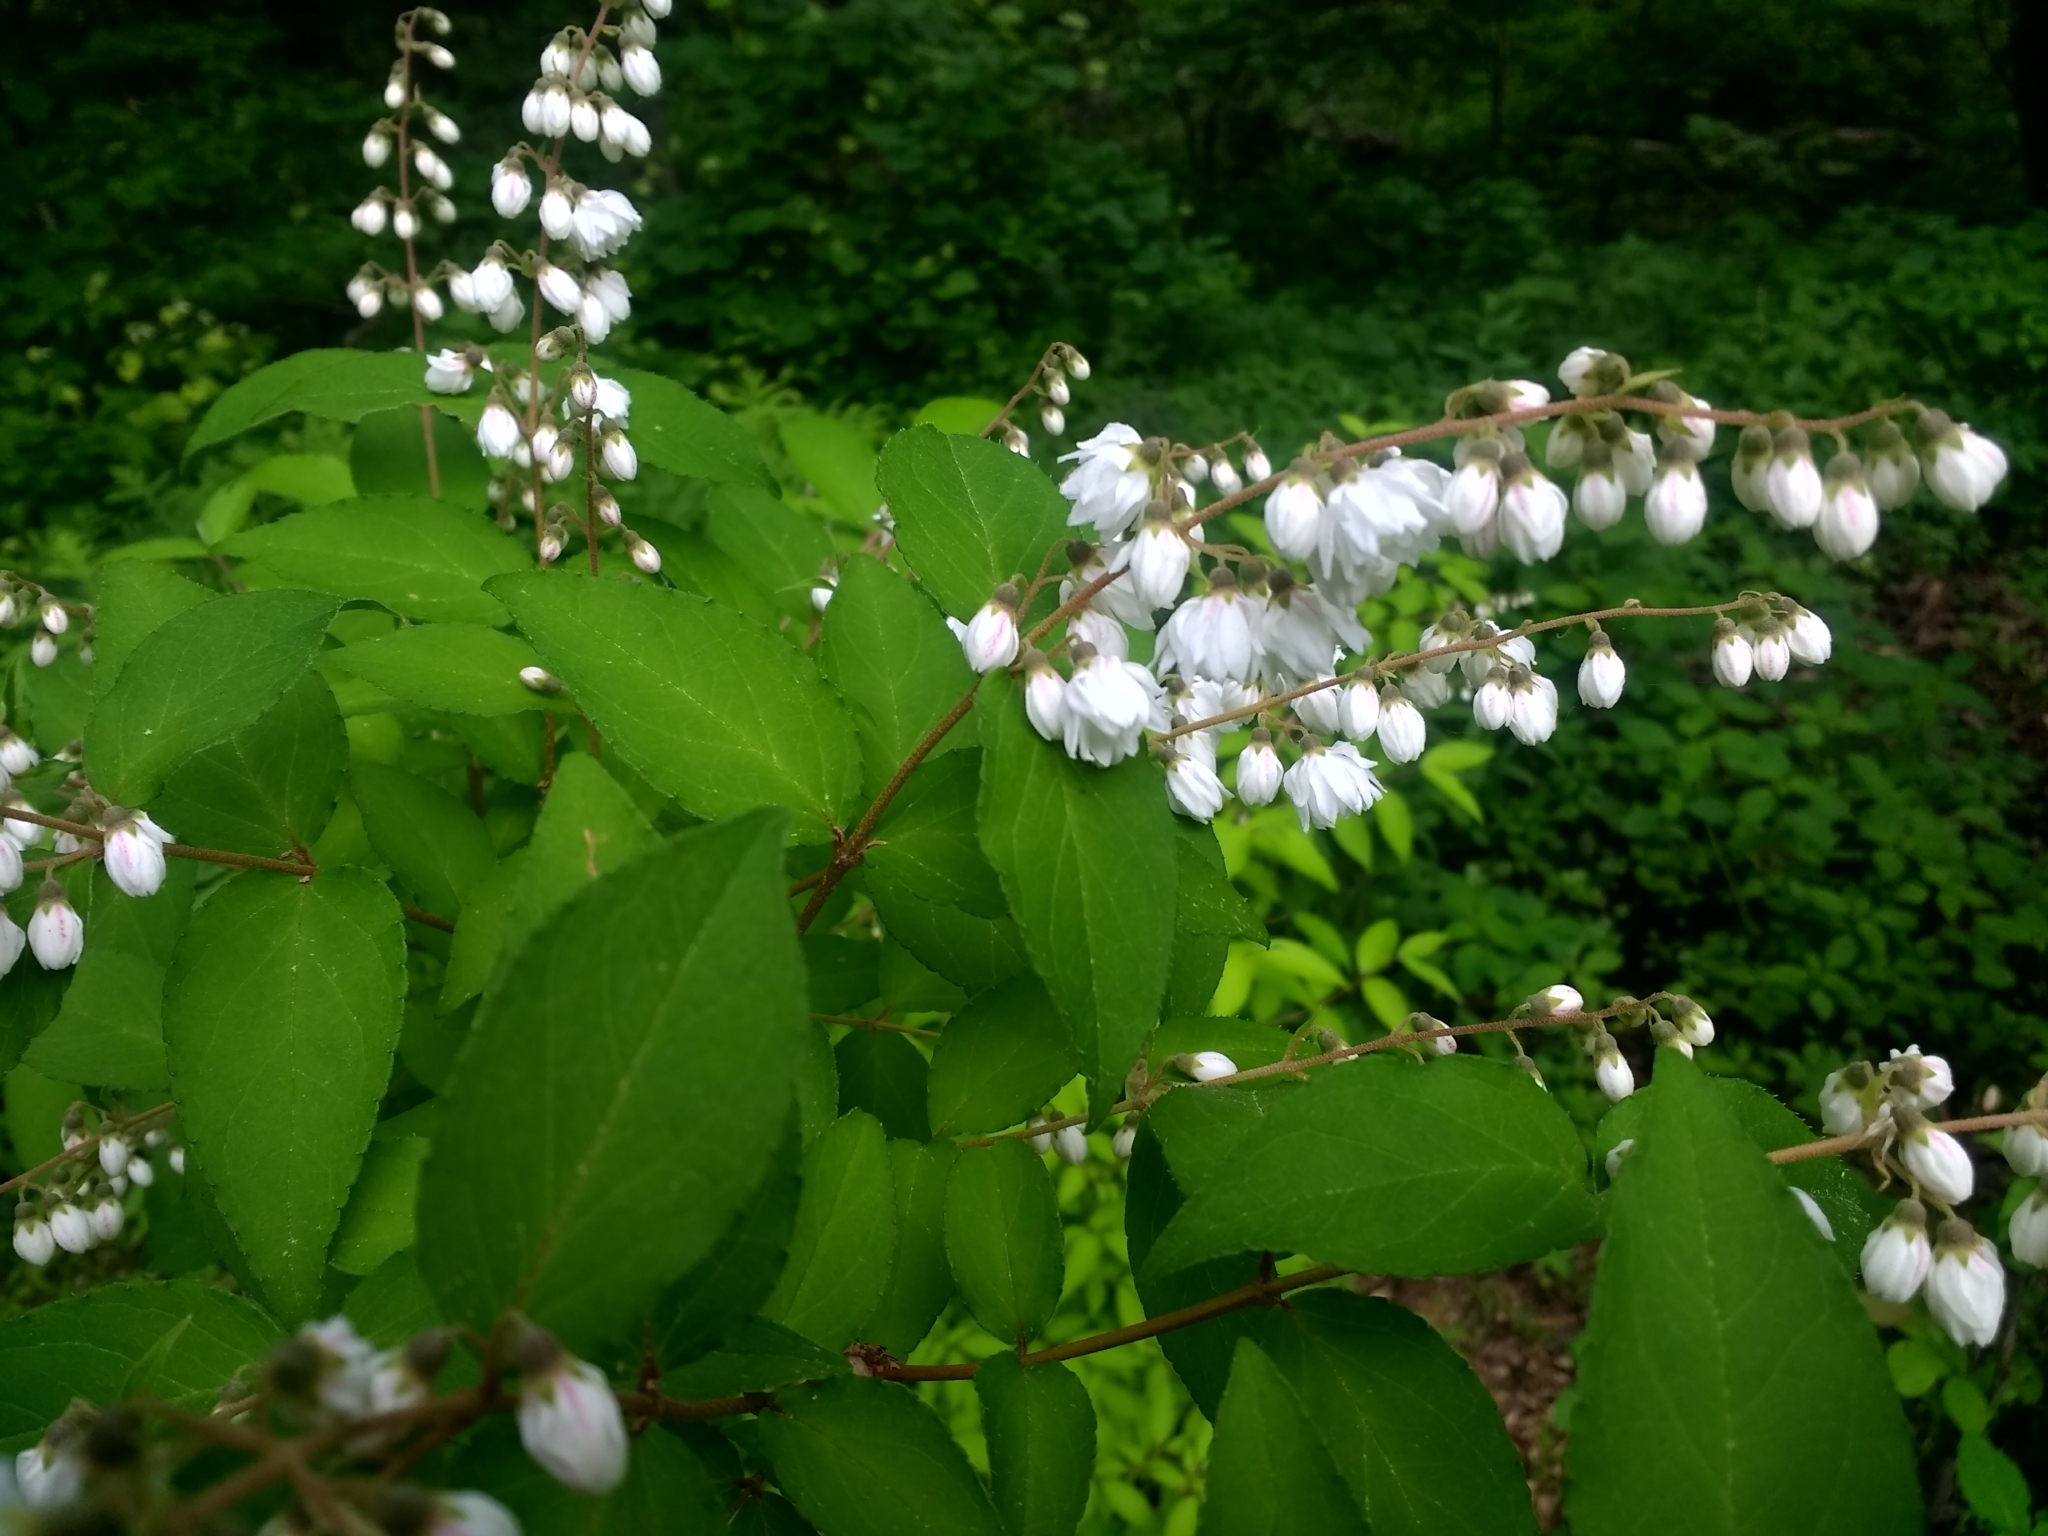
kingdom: Plantae
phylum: Tracheophyta
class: Magnoliopsida
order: Cornales
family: Hydrangeaceae
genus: Deutzia
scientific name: Deutzia scabra
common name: Deutzia
